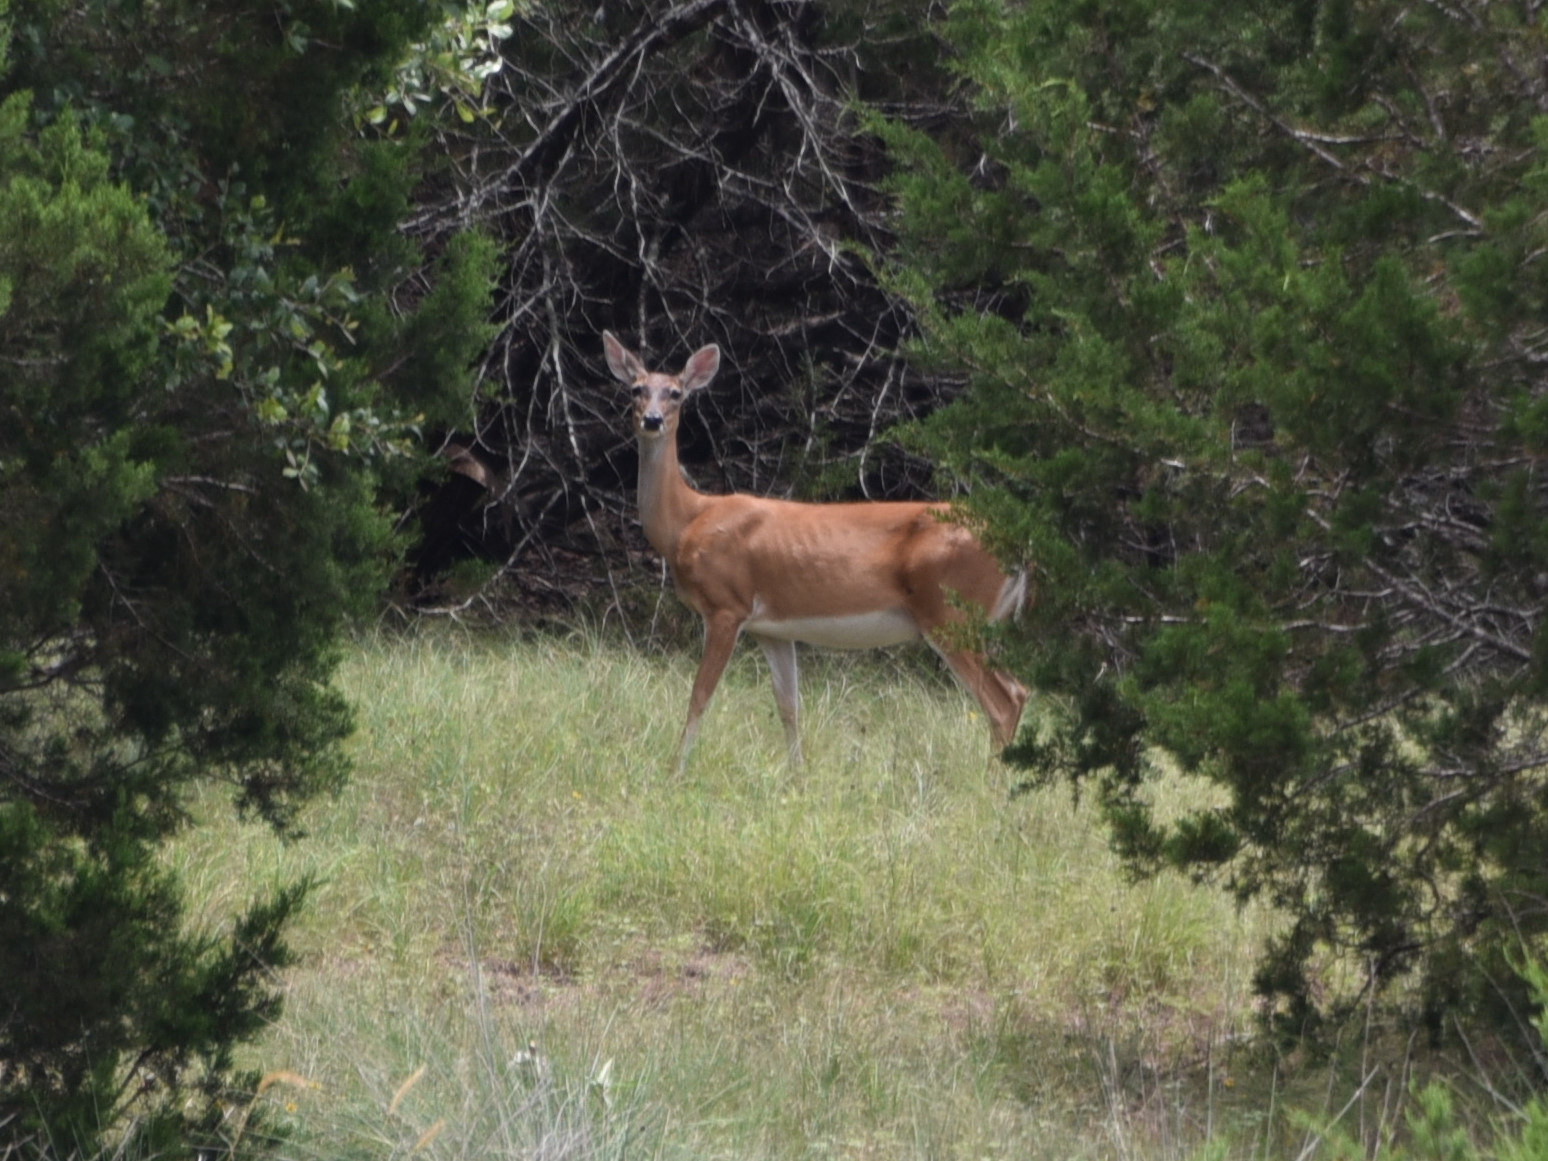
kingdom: Animalia
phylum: Chordata
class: Mammalia
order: Artiodactyla
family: Cervidae
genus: Odocoileus
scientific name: Odocoileus virginianus
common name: White-tailed deer
